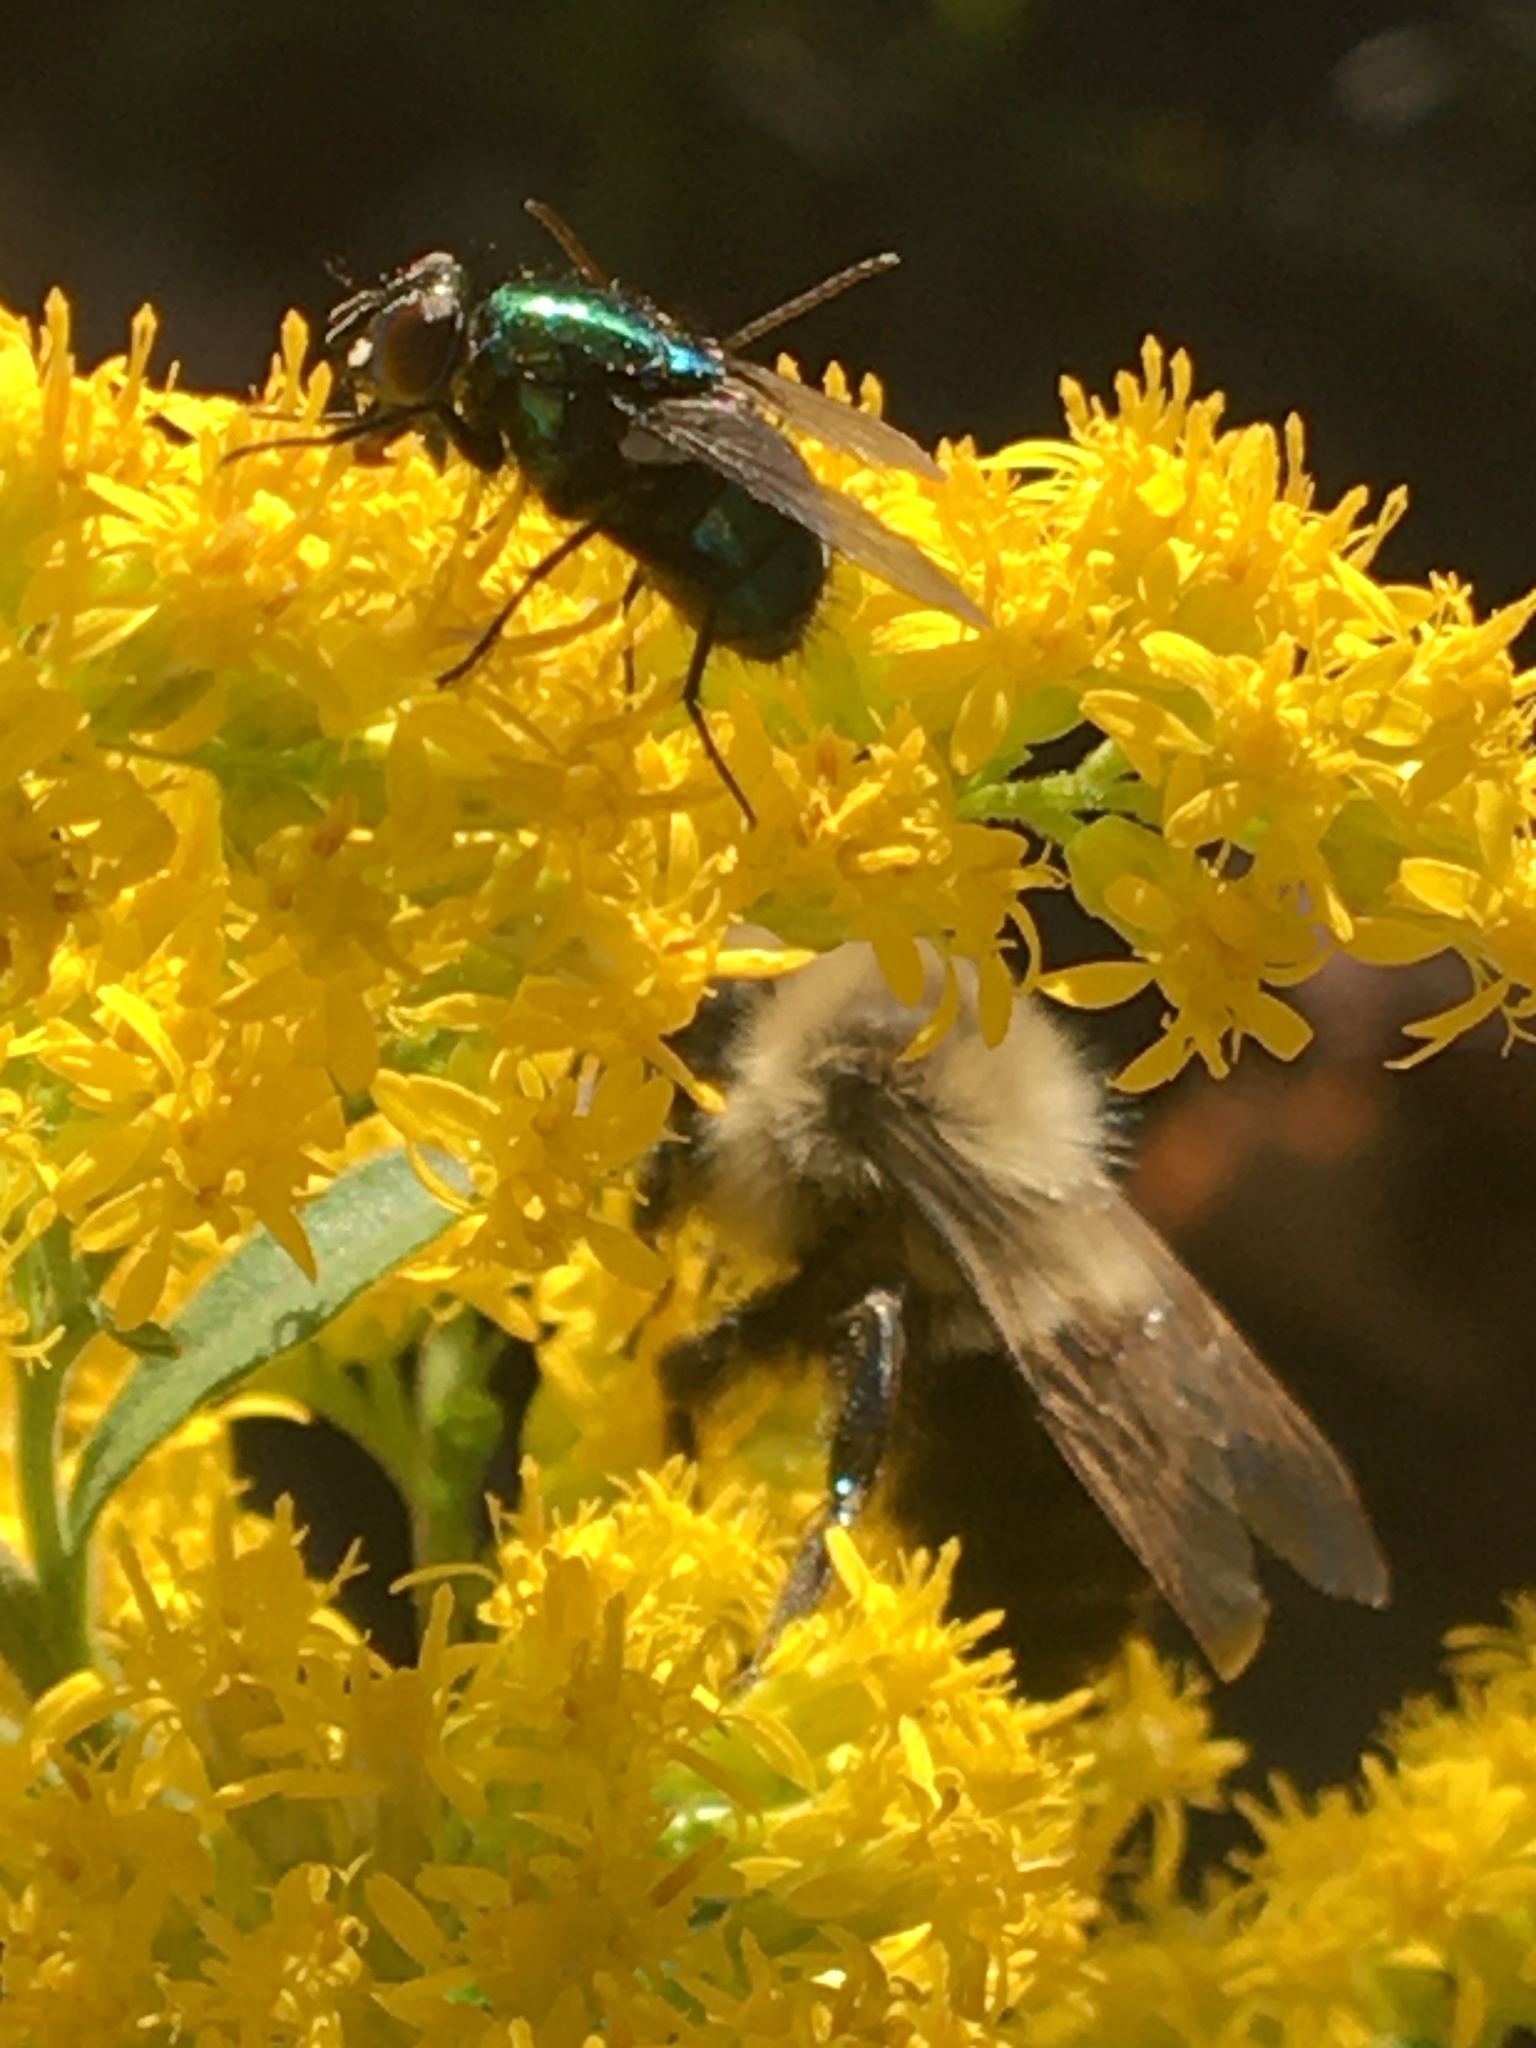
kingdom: Animalia
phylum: Arthropoda
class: Insecta
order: Hymenoptera
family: Apidae
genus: Bombus
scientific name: Bombus impatiens
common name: Common eastern bumble bee
